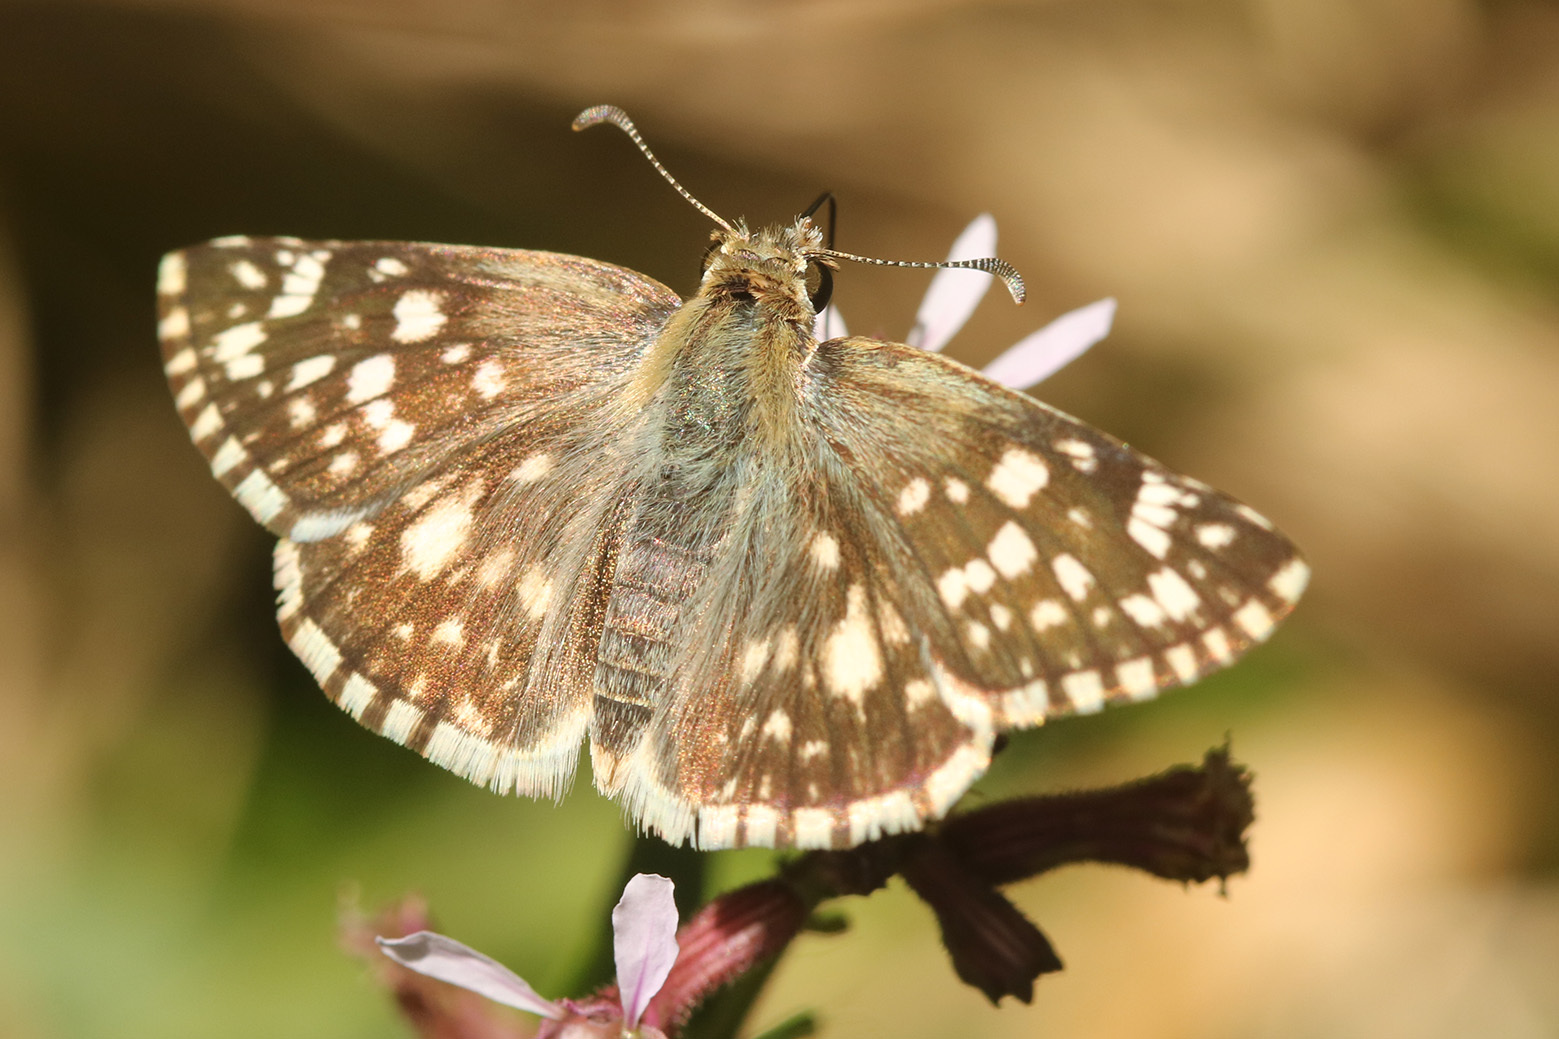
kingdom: Animalia
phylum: Arthropoda
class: Insecta
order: Lepidoptera
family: Hesperiidae
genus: Heliopetes
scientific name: Heliopetes americanus
